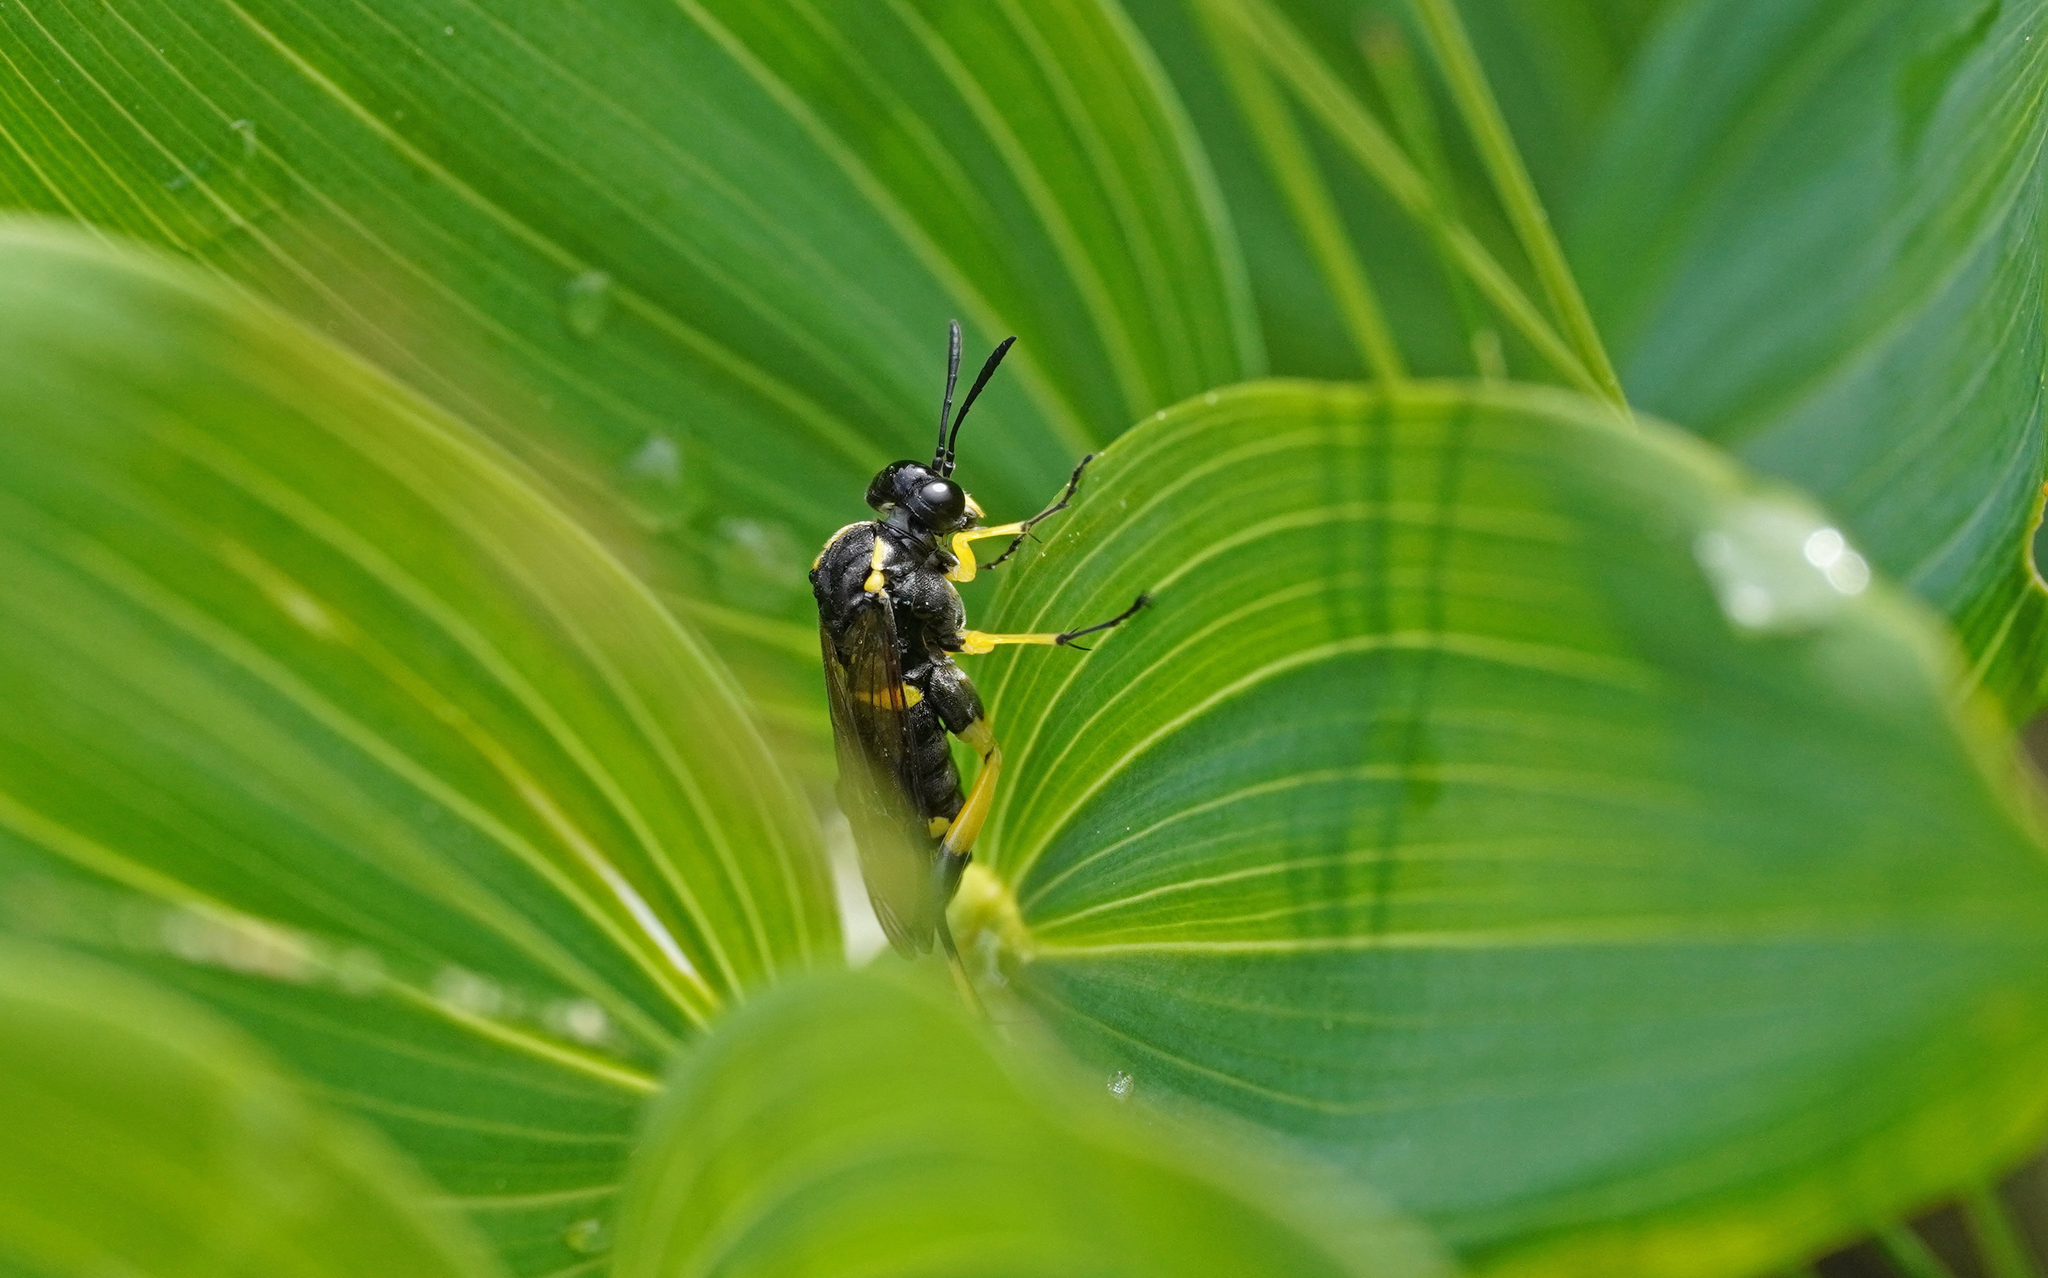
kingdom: Animalia
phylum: Arthropoda
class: Insecta
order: Hymenoptera
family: Tenthredinidae
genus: Macrophya
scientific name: Macrophya montana
